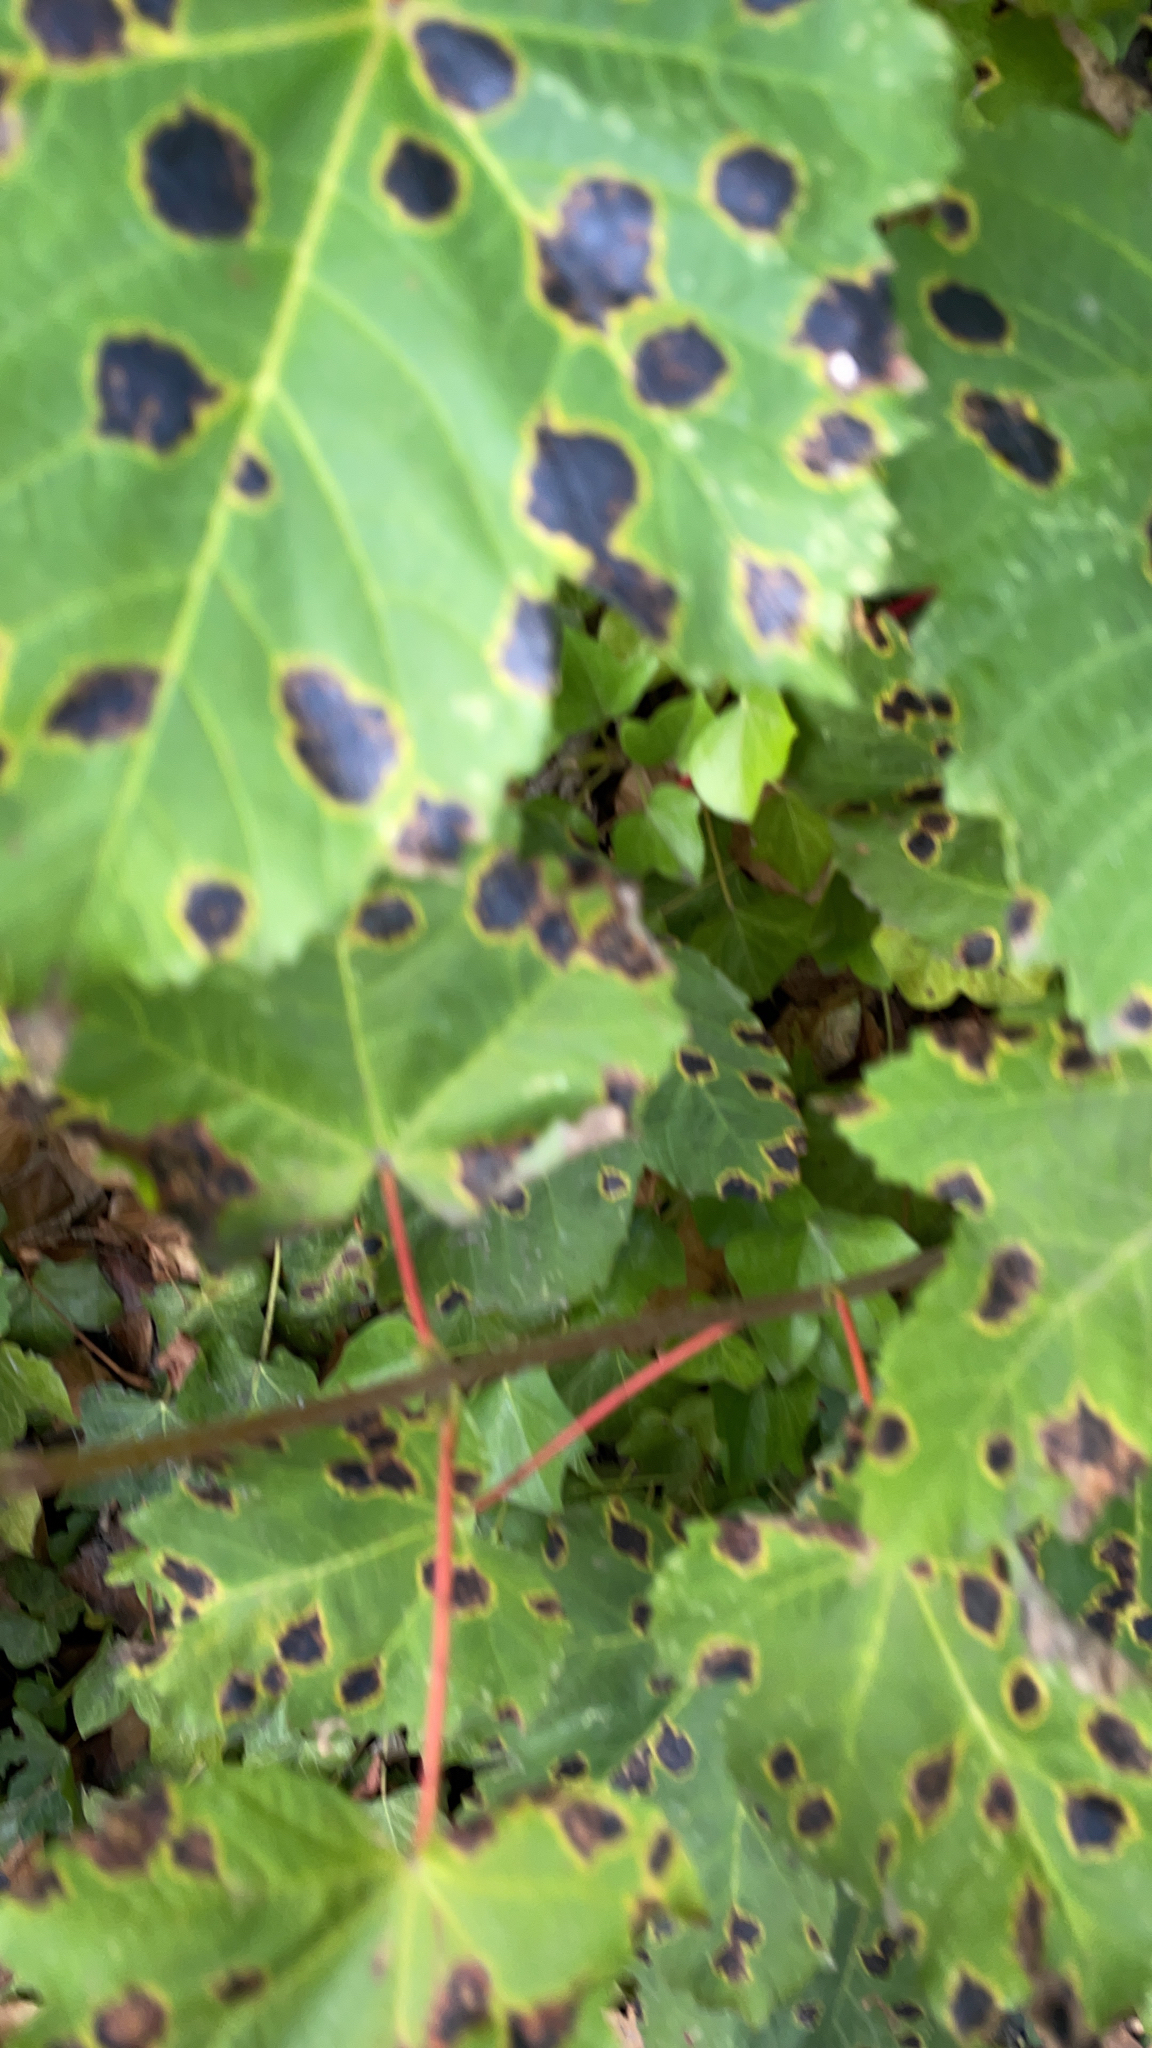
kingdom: Fungi
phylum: Ascomycota
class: Leotiomycetes
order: Rhytismatales
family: Rhytismataceae
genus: Rhytisma
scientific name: Rhytisma acerinum
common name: European tar spot
